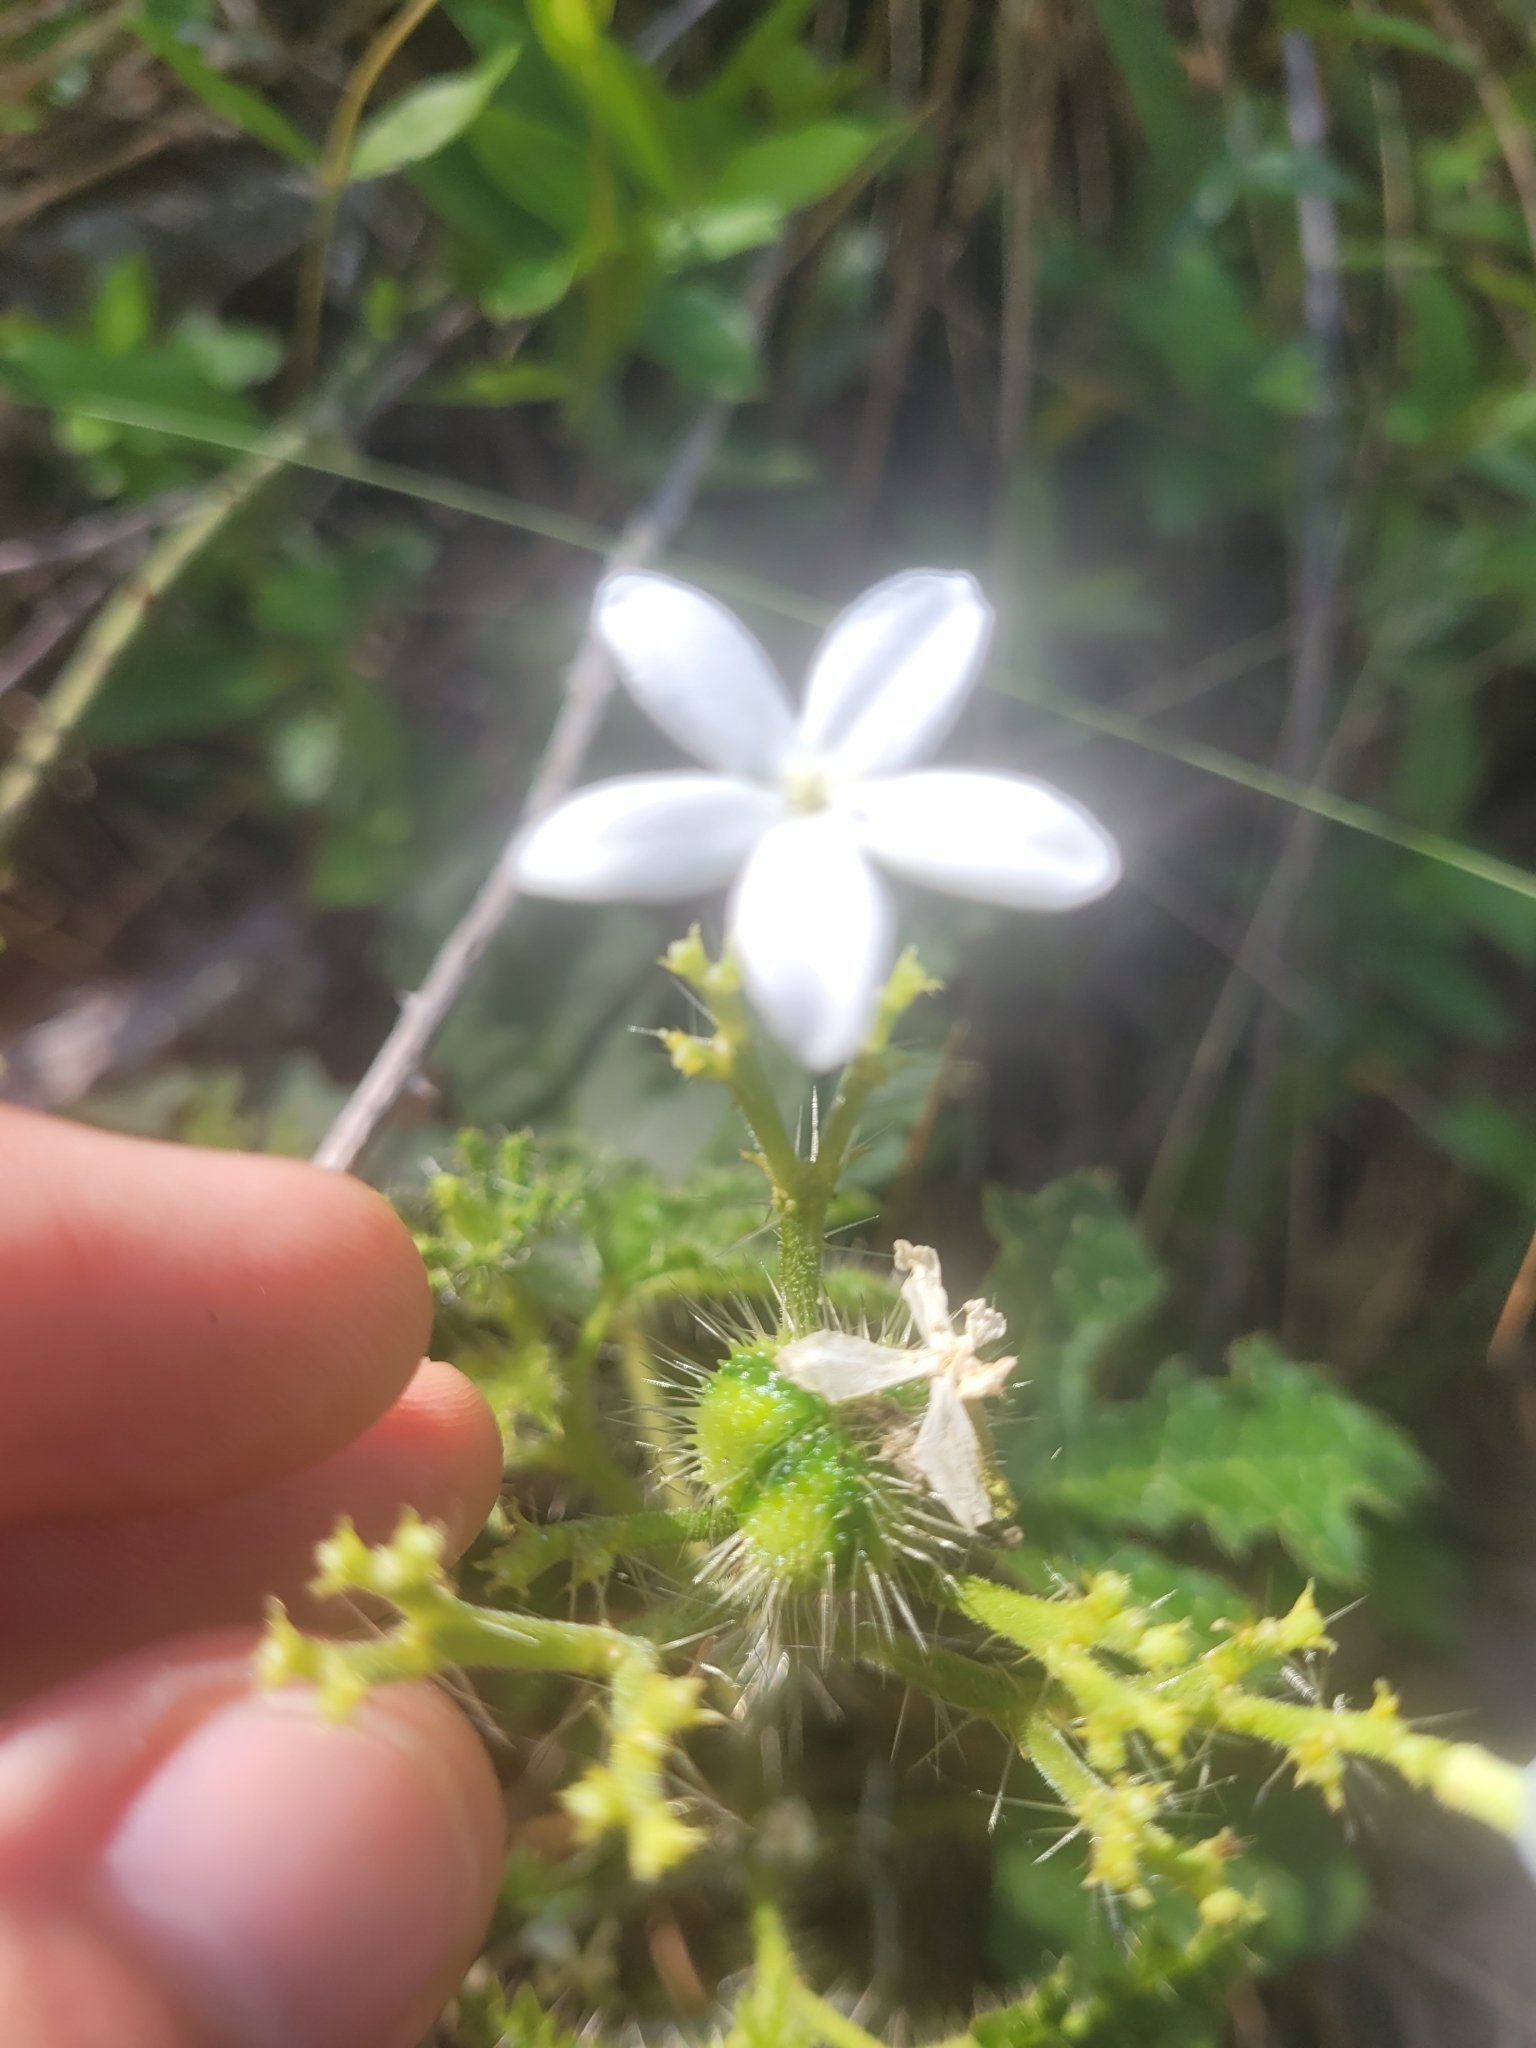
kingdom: Plantae
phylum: Tracheophyta
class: Magnoliopsida
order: Malpighiales
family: Euphorbiaceae
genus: Cnidoscolus
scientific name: Cnidoscolus stimulosus
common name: Bull-nettle
